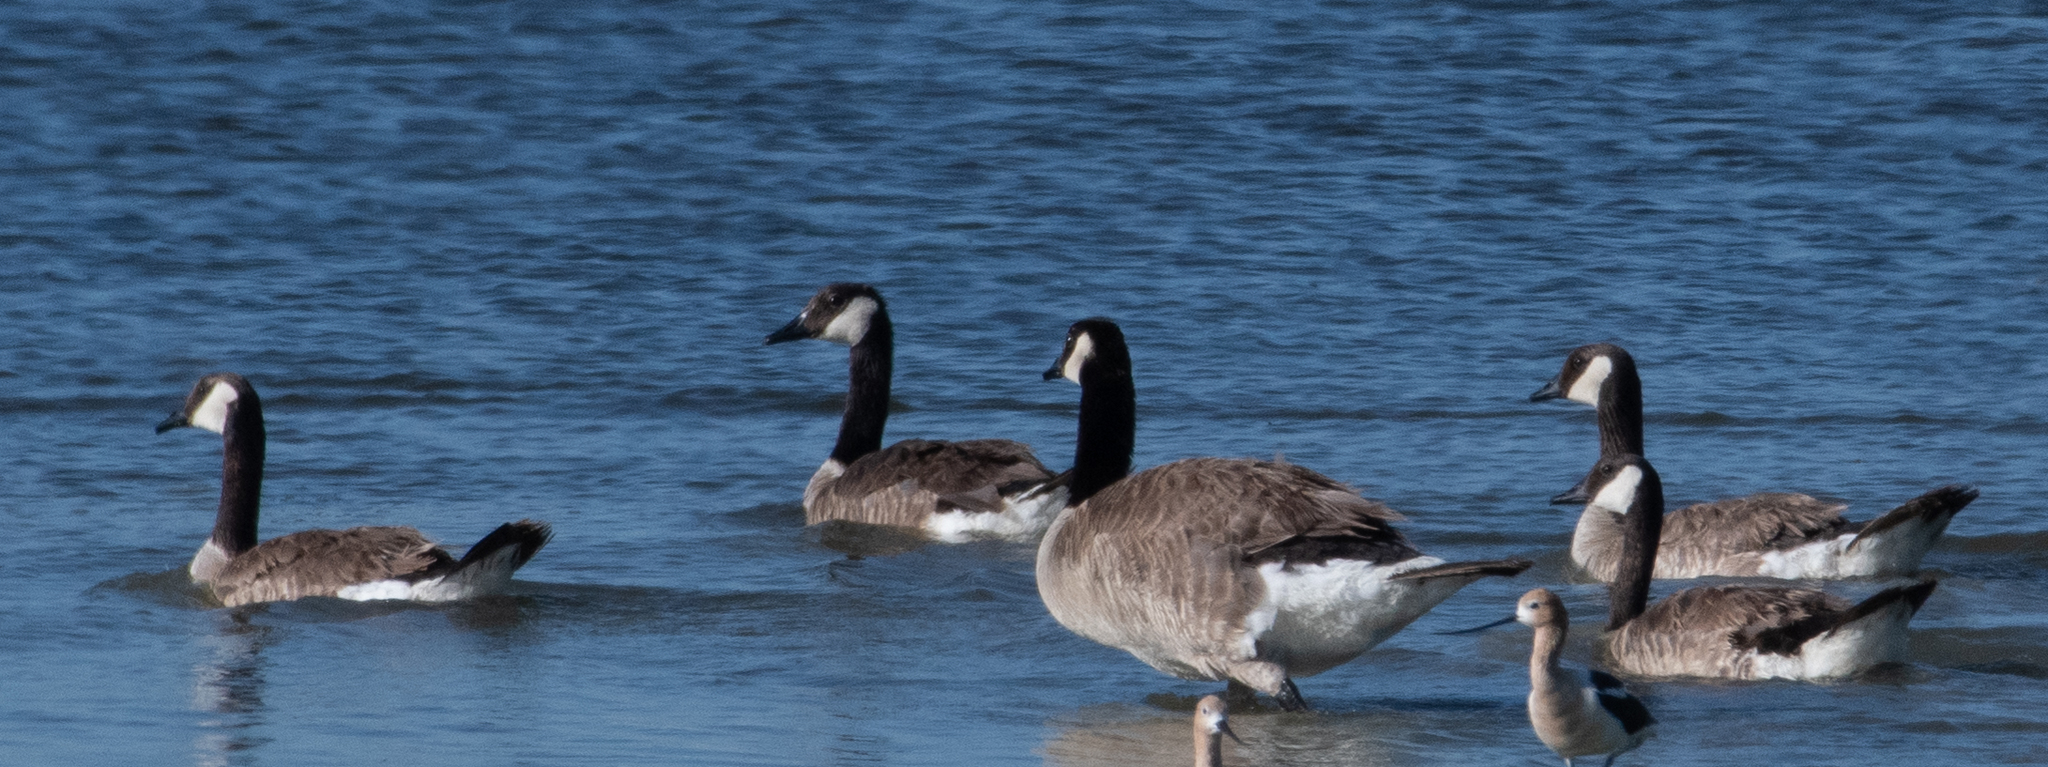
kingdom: Animalia
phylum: Chordata
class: Aves
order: Anseriformes
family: Anatidae
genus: Branta
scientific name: Branta canadensis
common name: Canada goose
